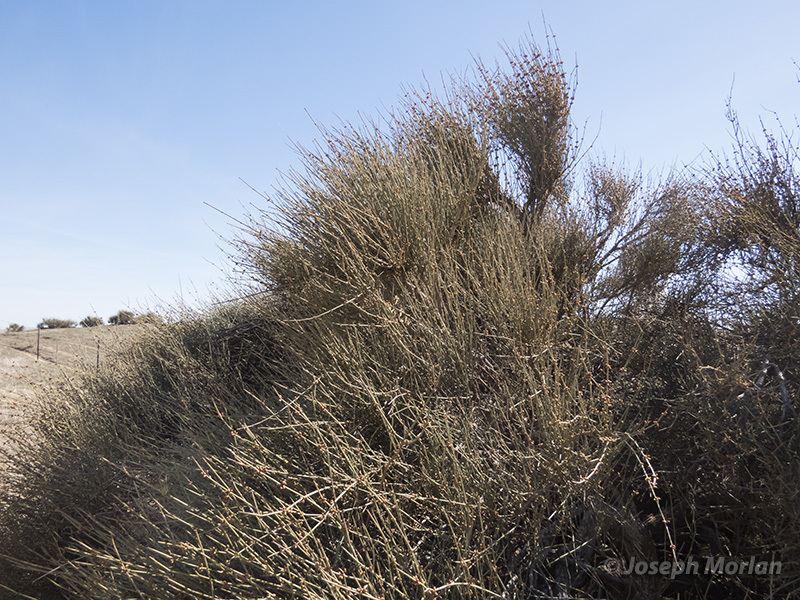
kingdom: Plantae
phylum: Tracheophyta
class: Gnetopsida
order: Ephedrales
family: Ephedraceae
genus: Ephedra
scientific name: Ephedra californica
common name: California ephedra
